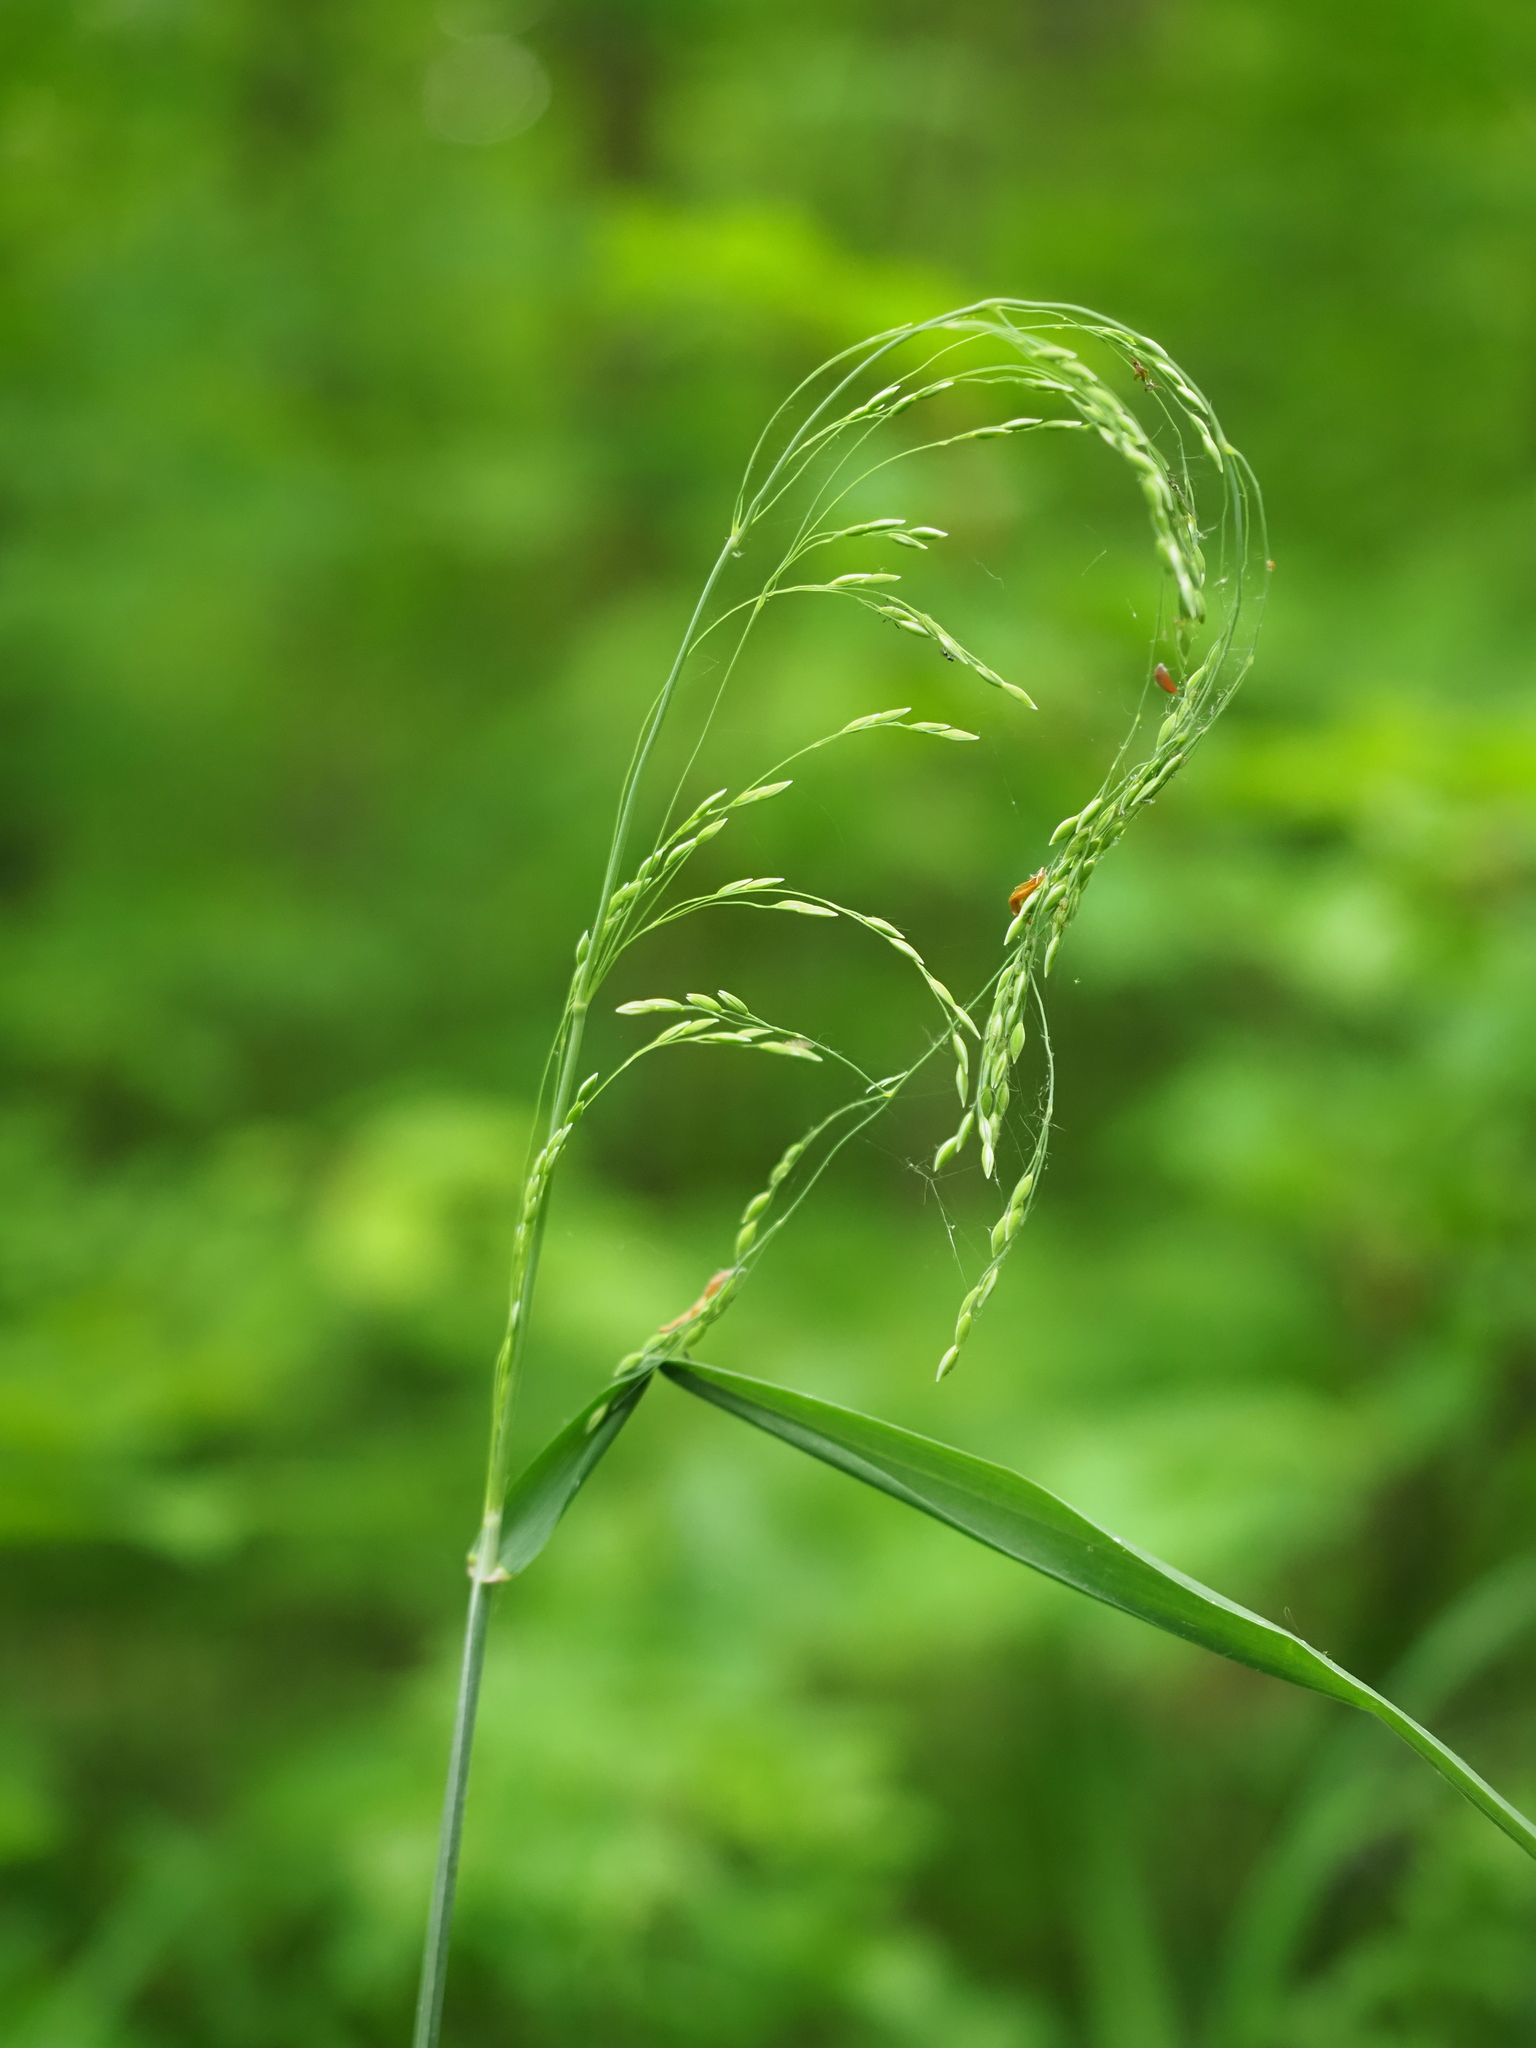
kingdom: Plantae
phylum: Tracheophyta
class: Liliopsida
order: Poales
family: Poaceae
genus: Milium
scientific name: Milium effusum
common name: Wood millet
